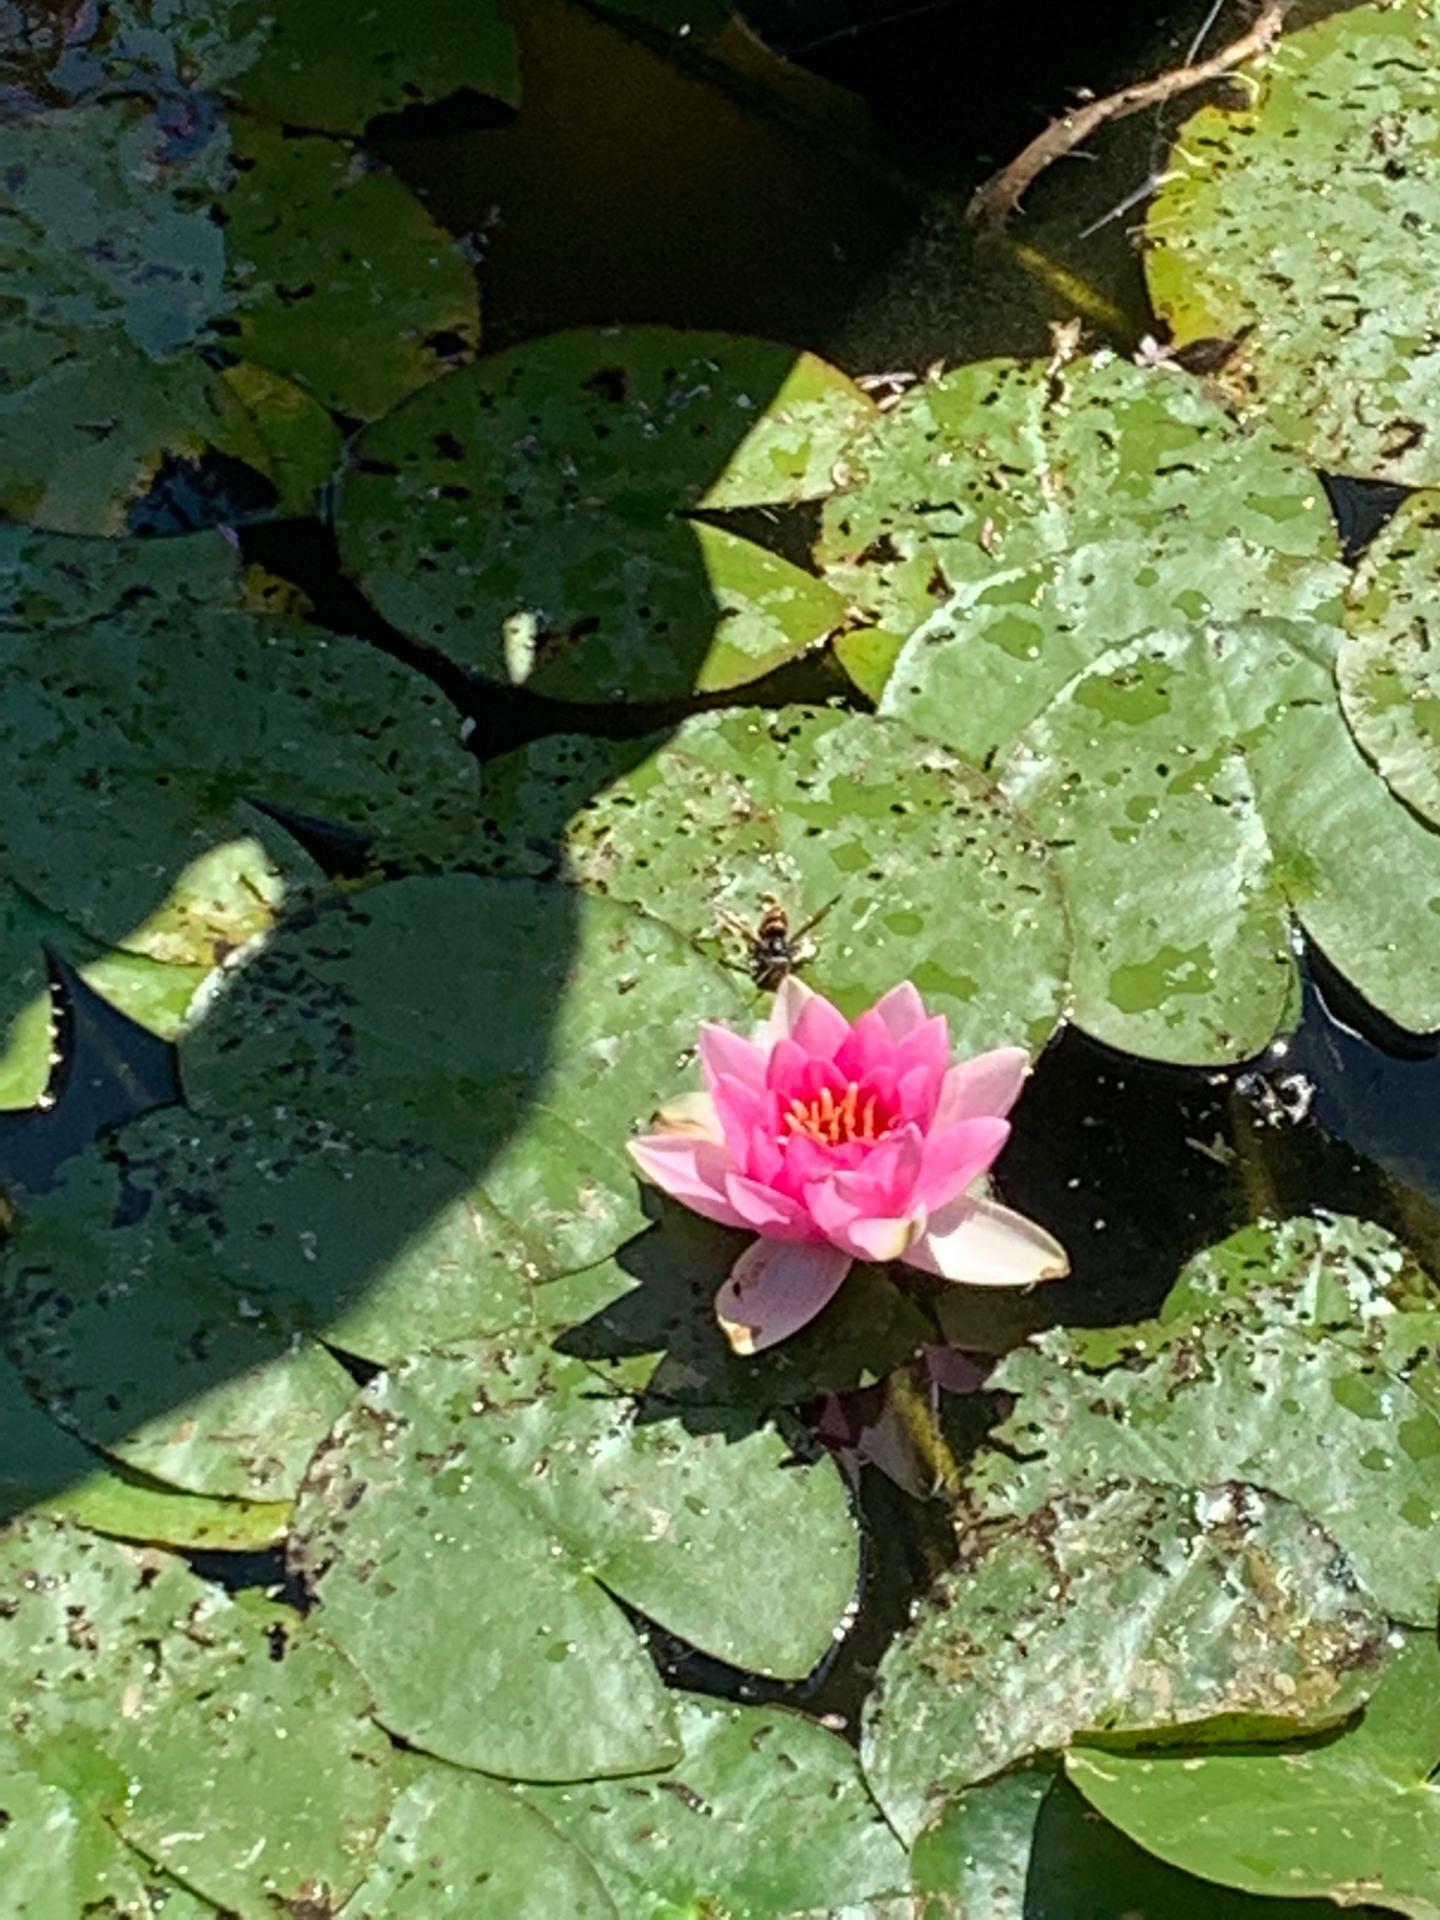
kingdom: Animalia
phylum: Arthropoda
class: Insecta
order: Hymenoptera
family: Vespidae
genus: Vespa
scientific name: Vespa velutina
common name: Asian hornet
